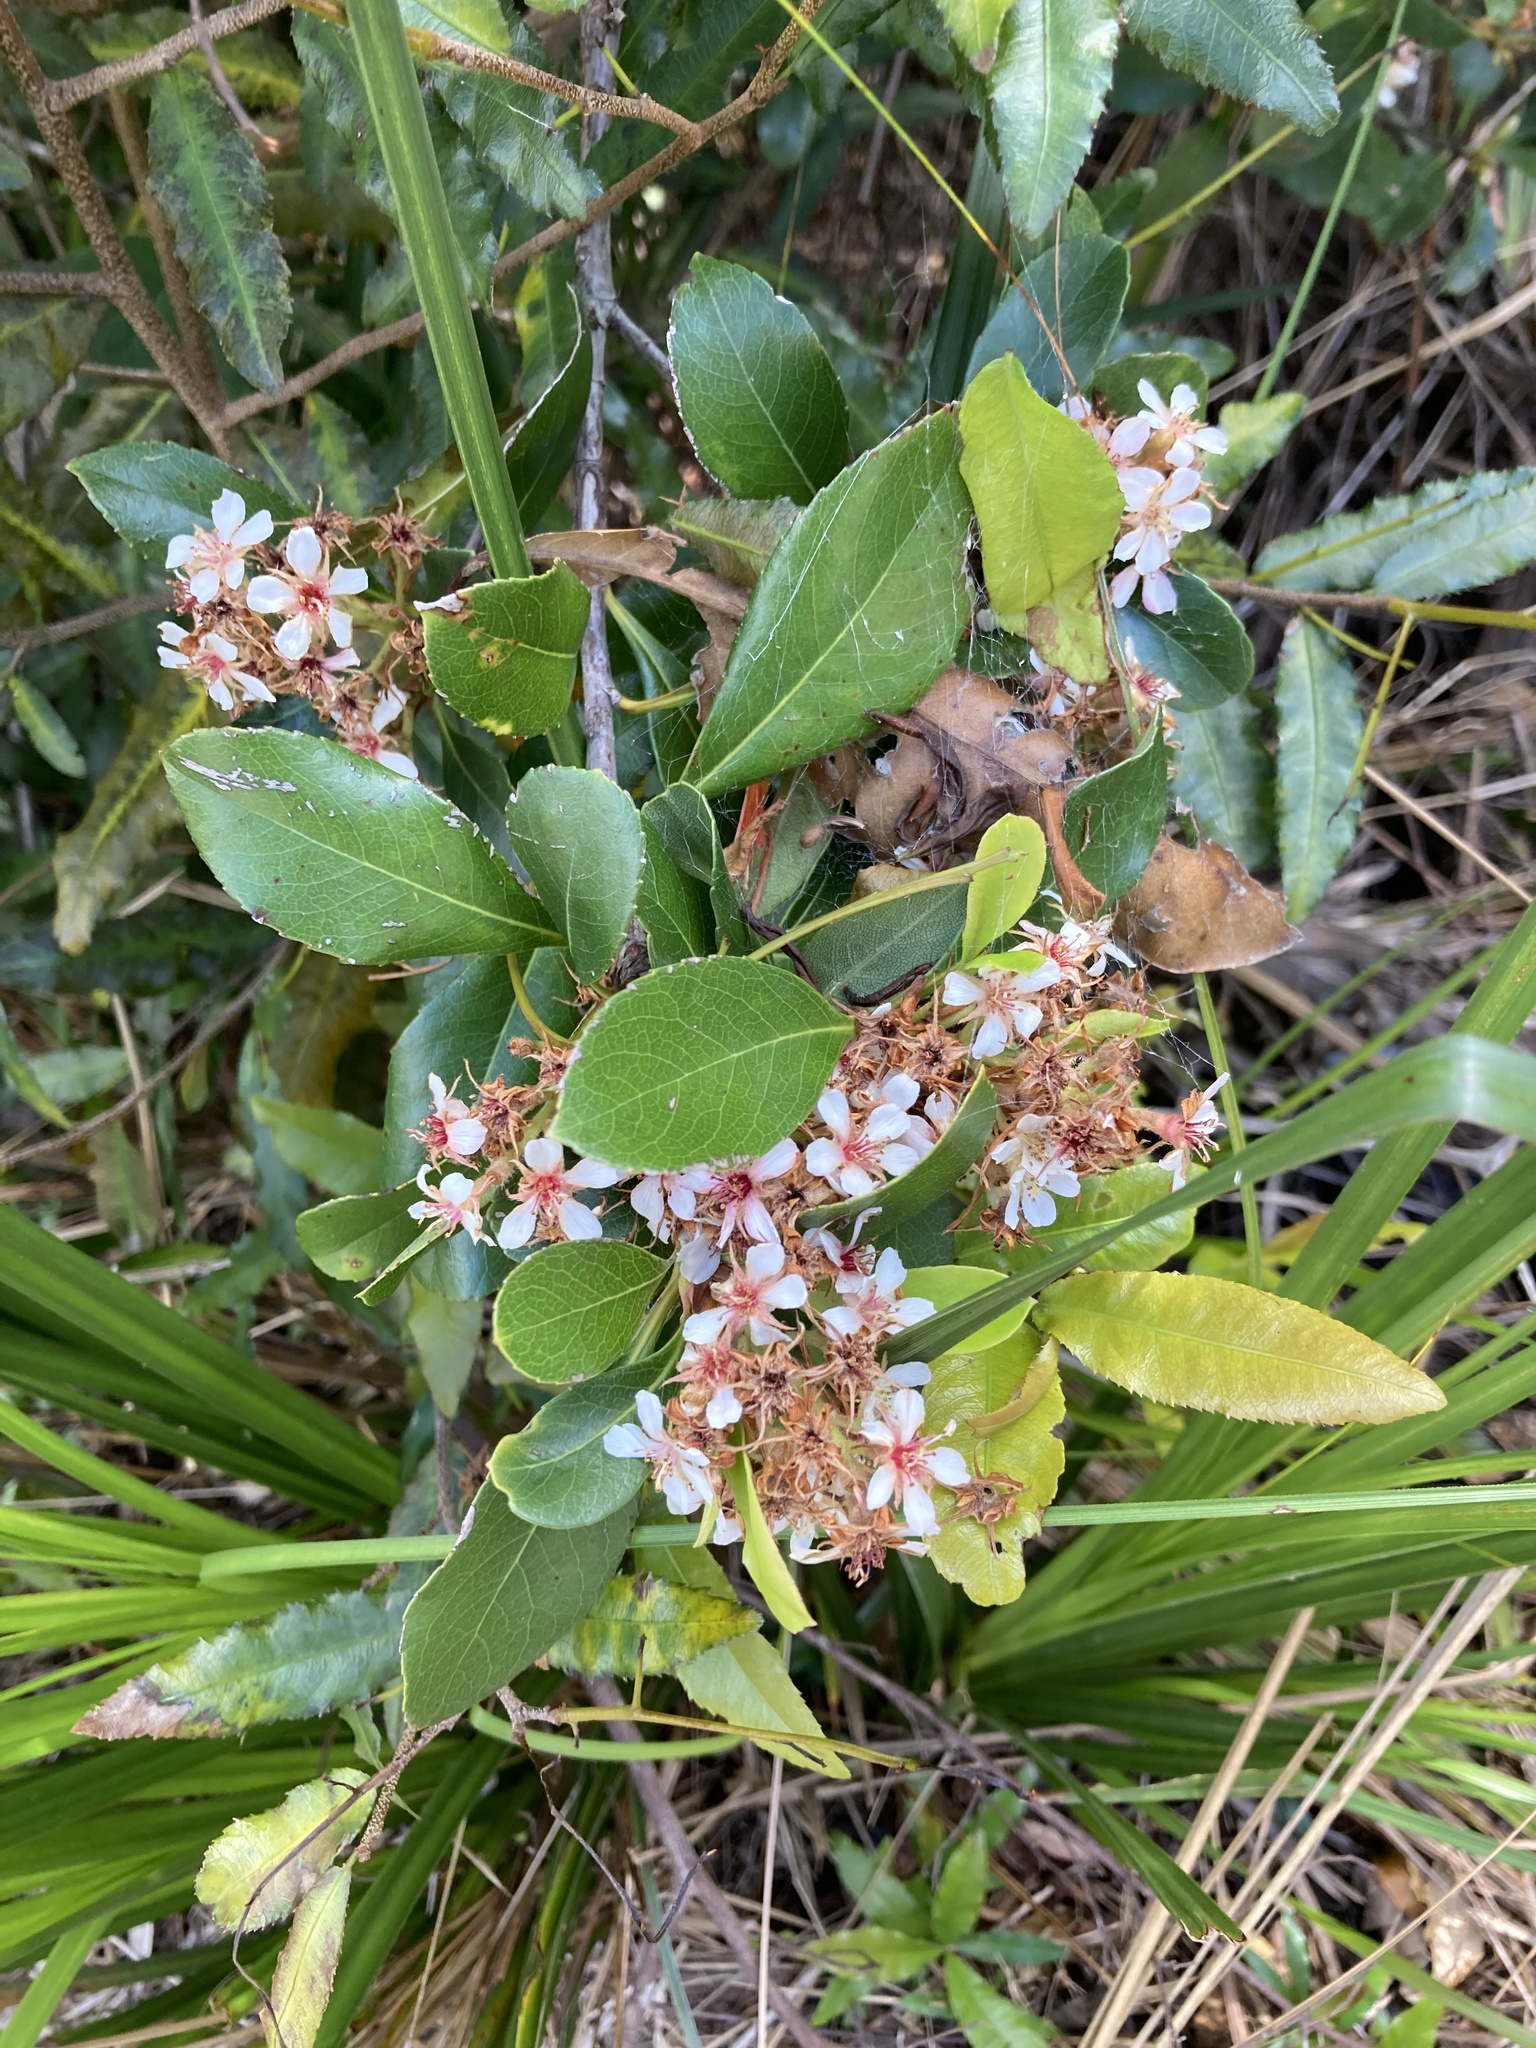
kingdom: Plantae
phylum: Tracheophyta
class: Magnoliopsida
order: Rosales
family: Rosaceae
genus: Rhaphiolepis
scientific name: Rhaphiolepis indica
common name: India-hawthorn
